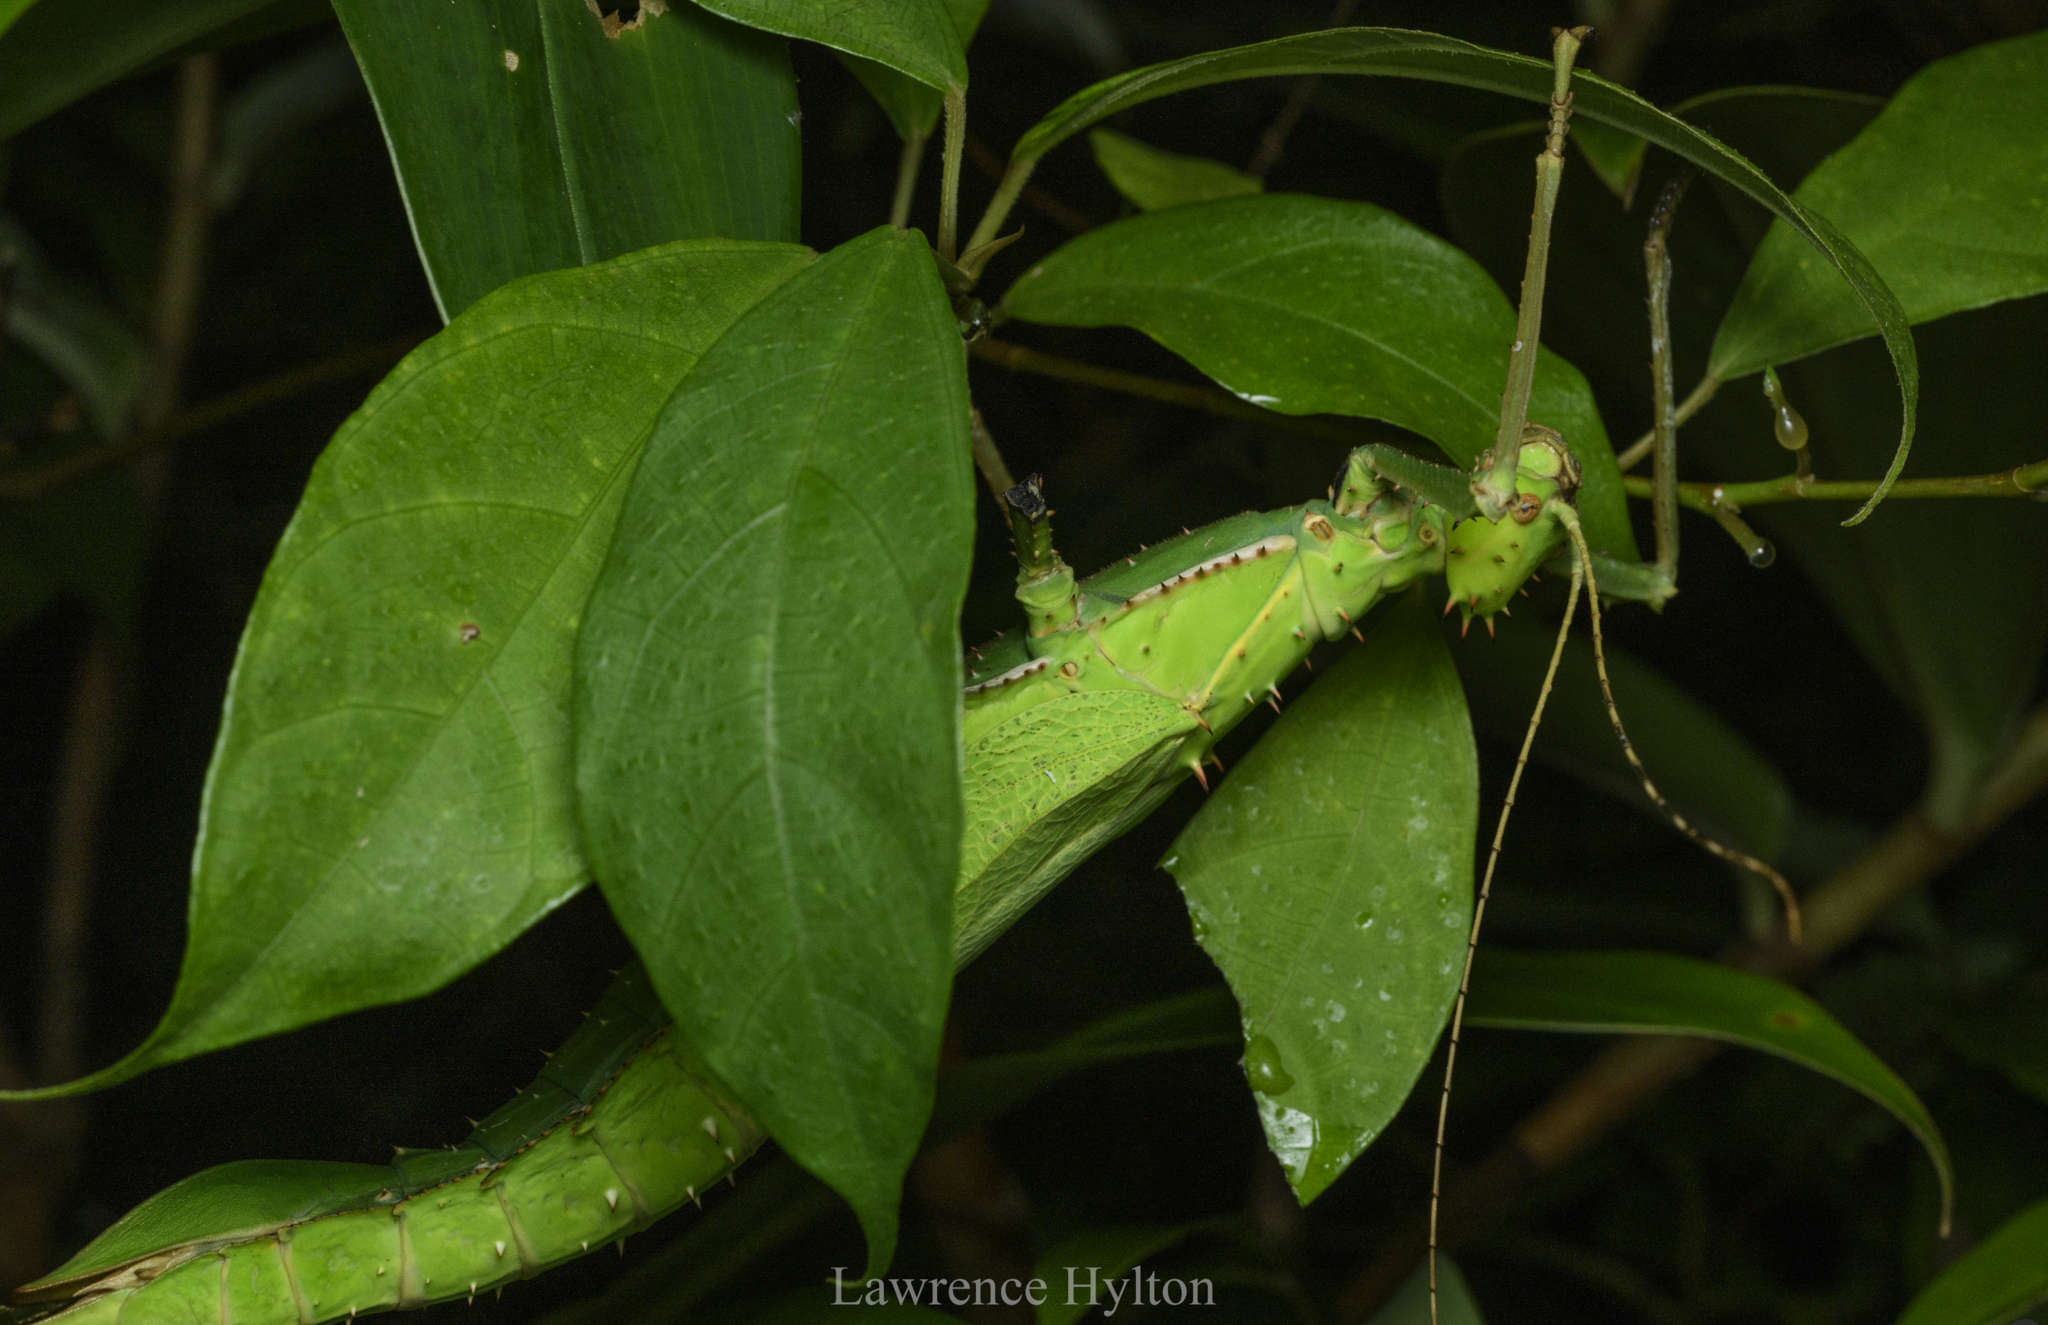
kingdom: Animalia
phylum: Arthropoda
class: Insecta
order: Phasmida
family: Heteropterygidae
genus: Heteropteryx
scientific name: Heteropteryx dilatata
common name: Jungle nymph
